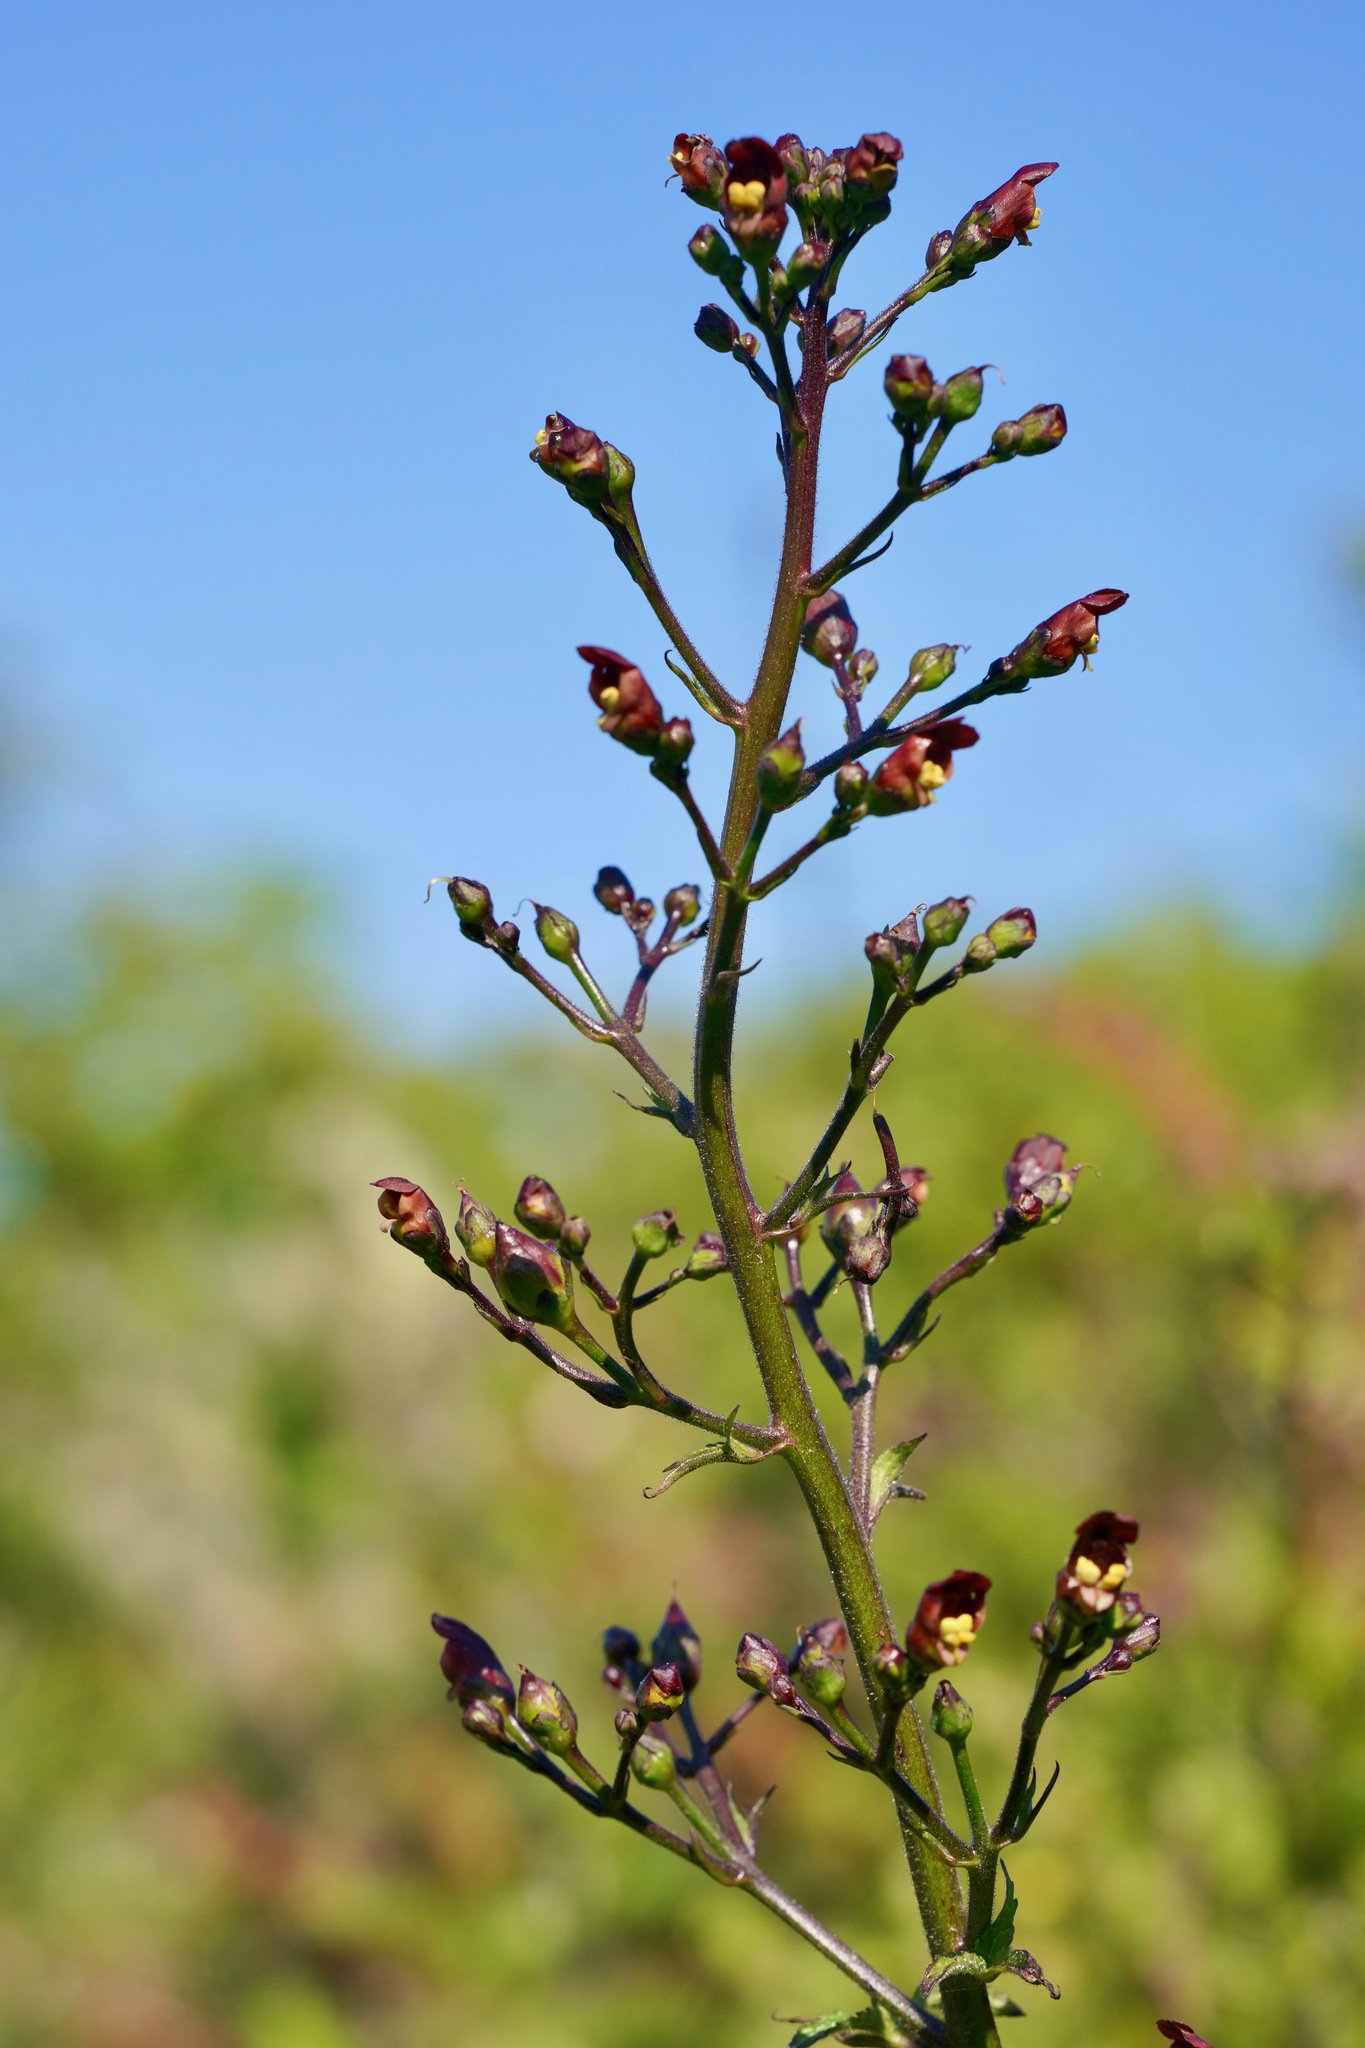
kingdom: Plantae
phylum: Tracheophyta
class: Magnoliopsida
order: Lamiales
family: Scrophulariaceae
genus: Scrophularia
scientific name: Scrophularia californica
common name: California figwort
